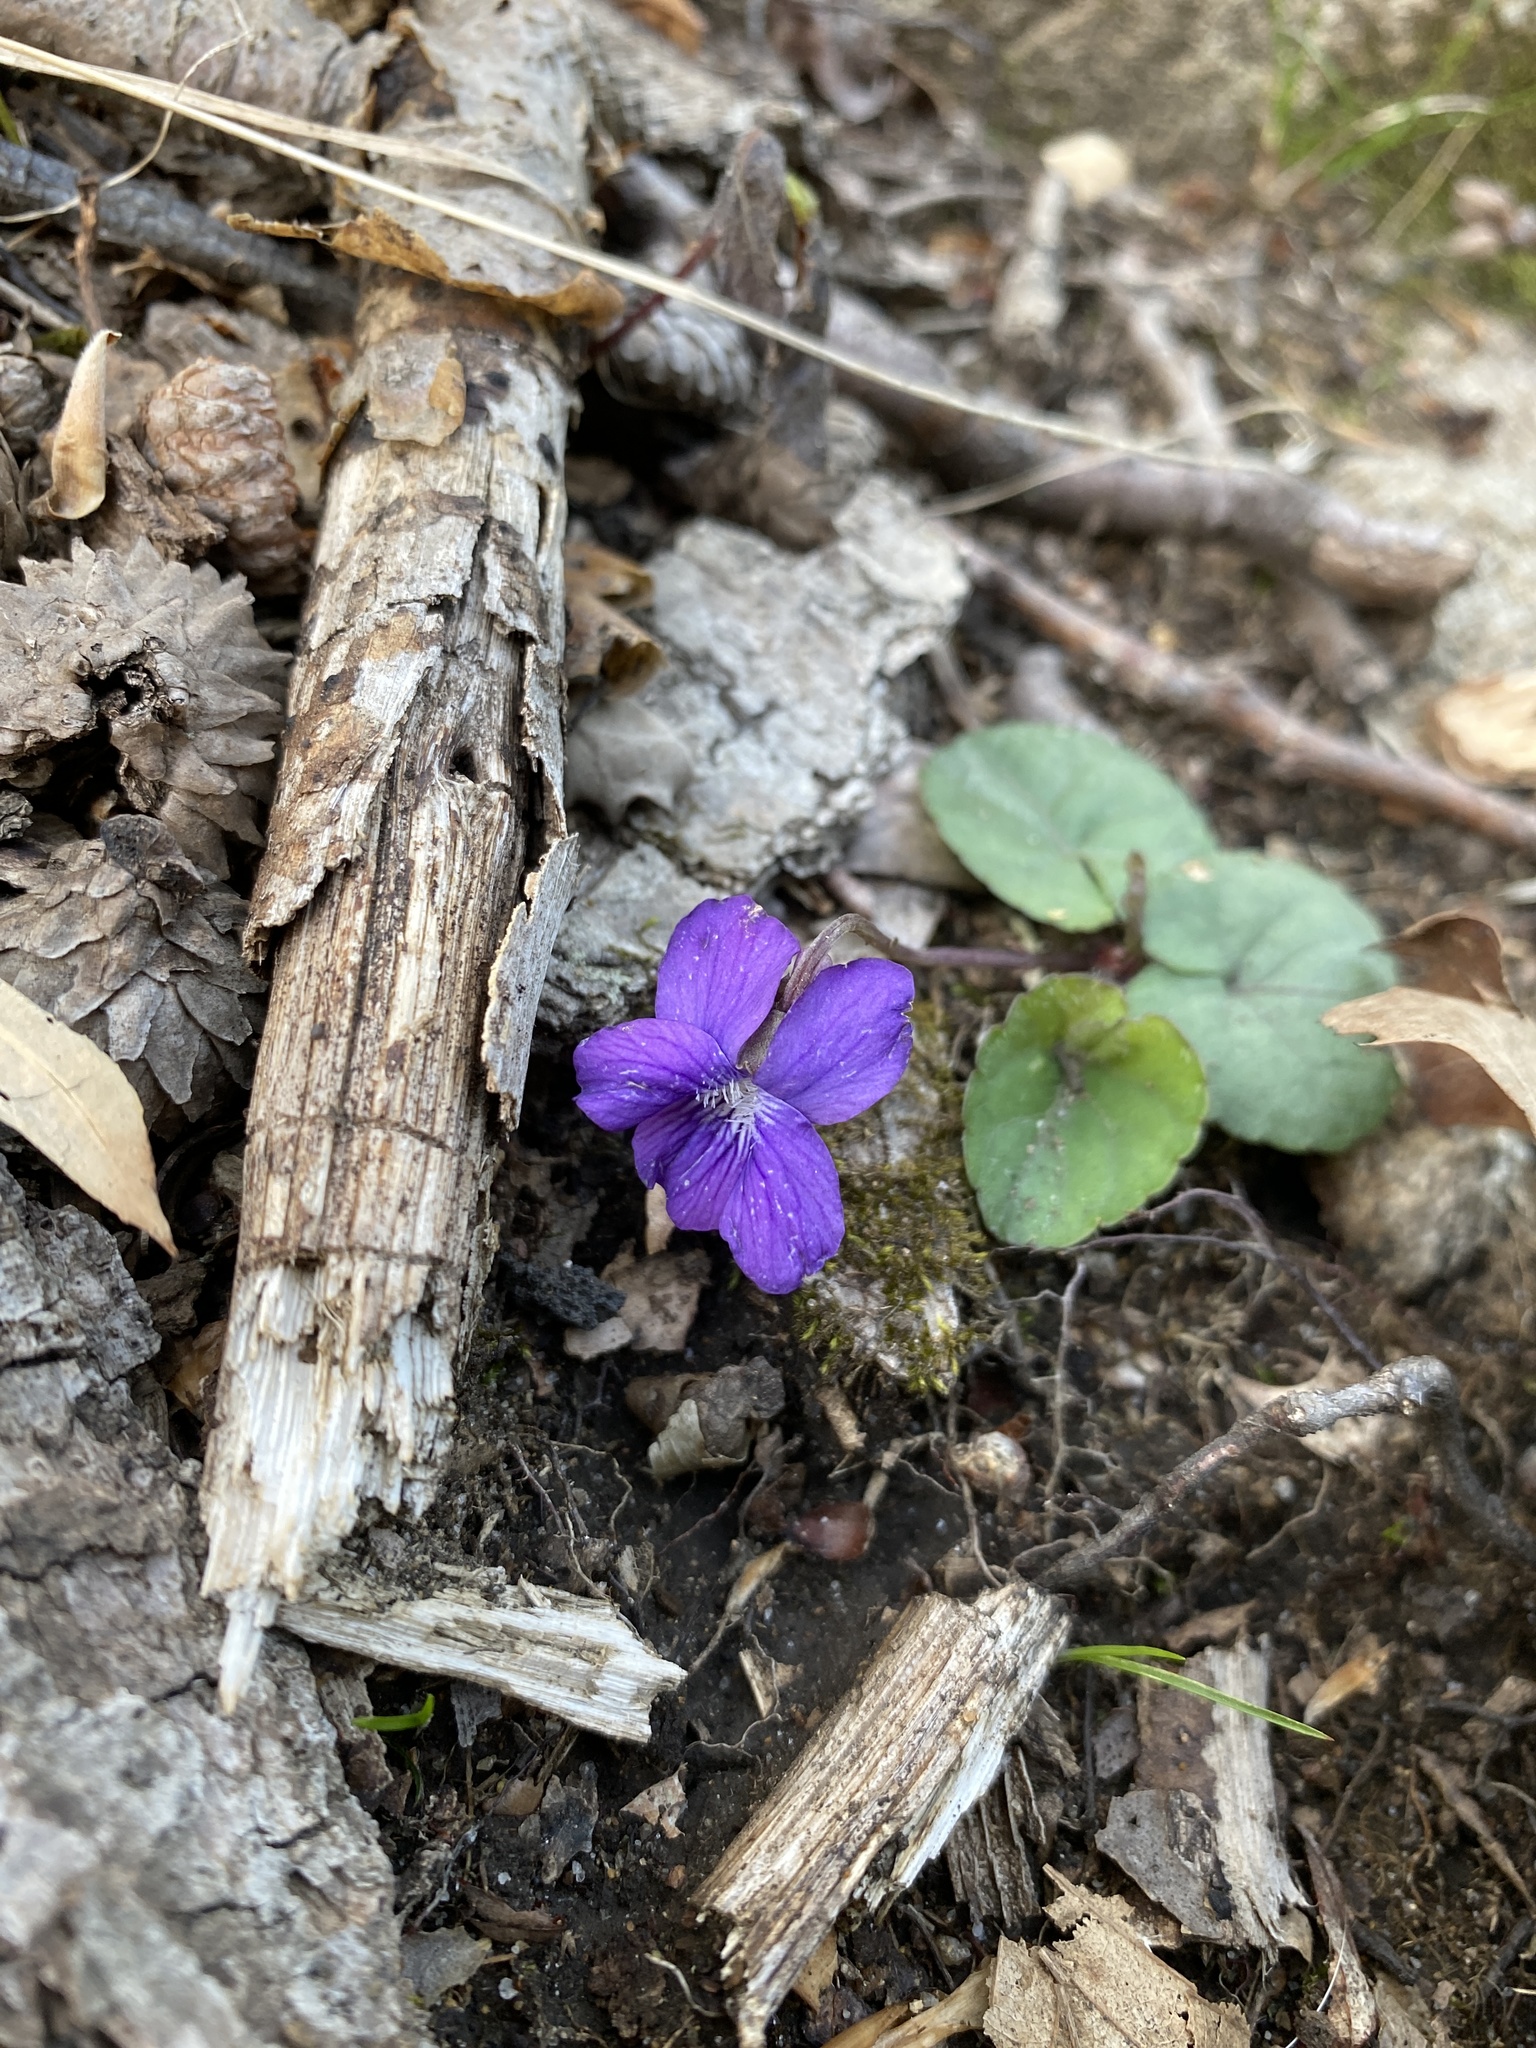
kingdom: Plantae
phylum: Tracheophyta
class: Magnoliopsida
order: Malpighiales
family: Violaceae
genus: Viola
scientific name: Viola hirsutula
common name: Southern wood violet
